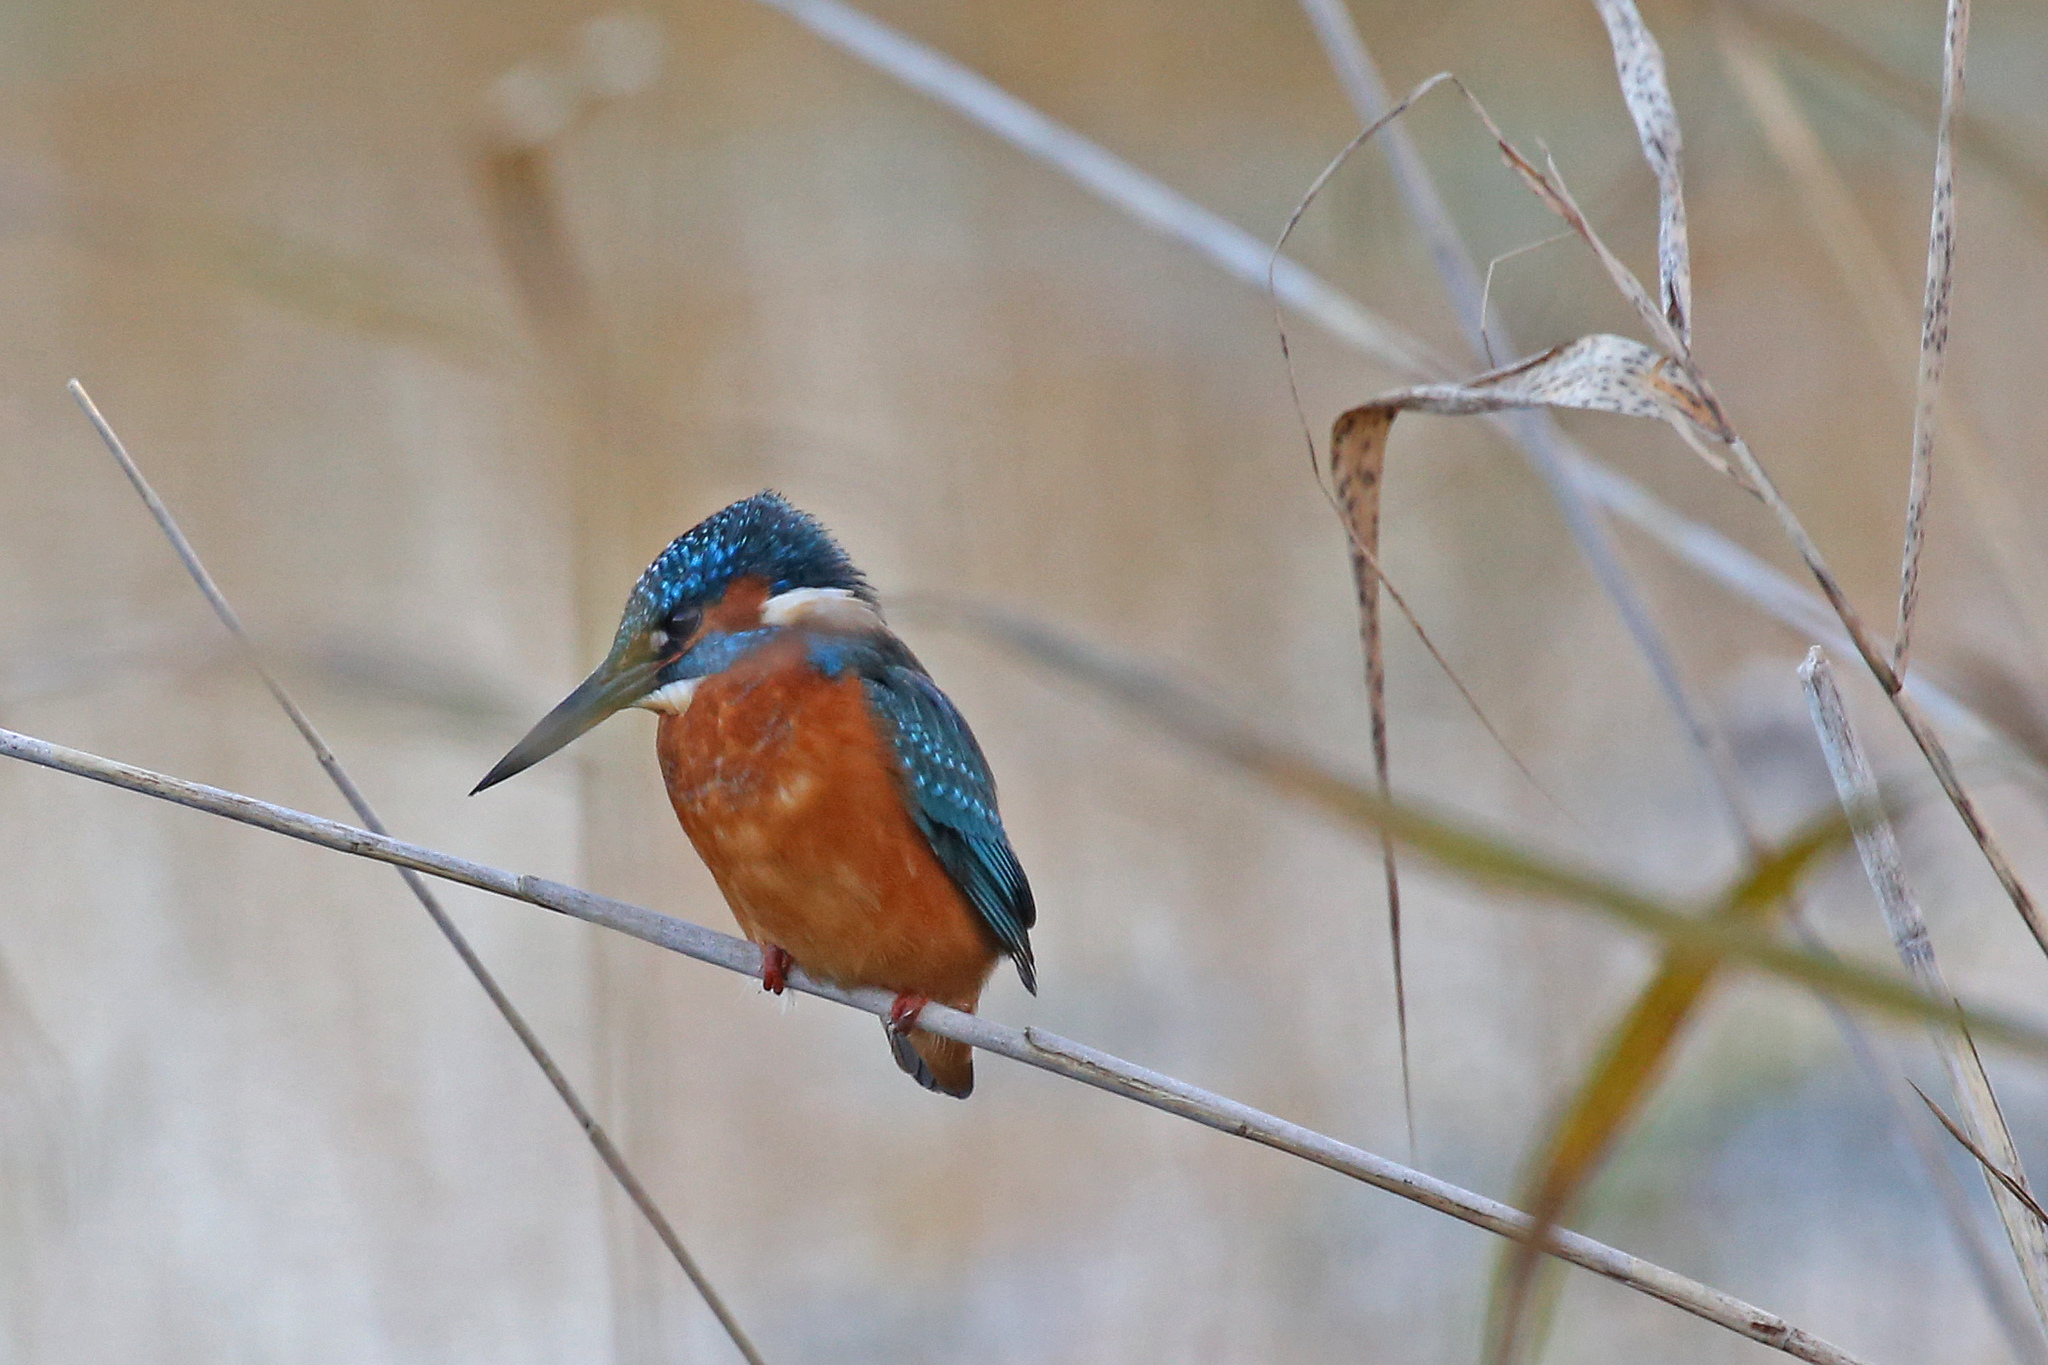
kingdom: Animalia
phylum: Chordata
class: Aves
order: Coraciiformes
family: Alcedinidae
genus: Alcedo
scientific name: Alcedo atthis
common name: Common kingfisher
